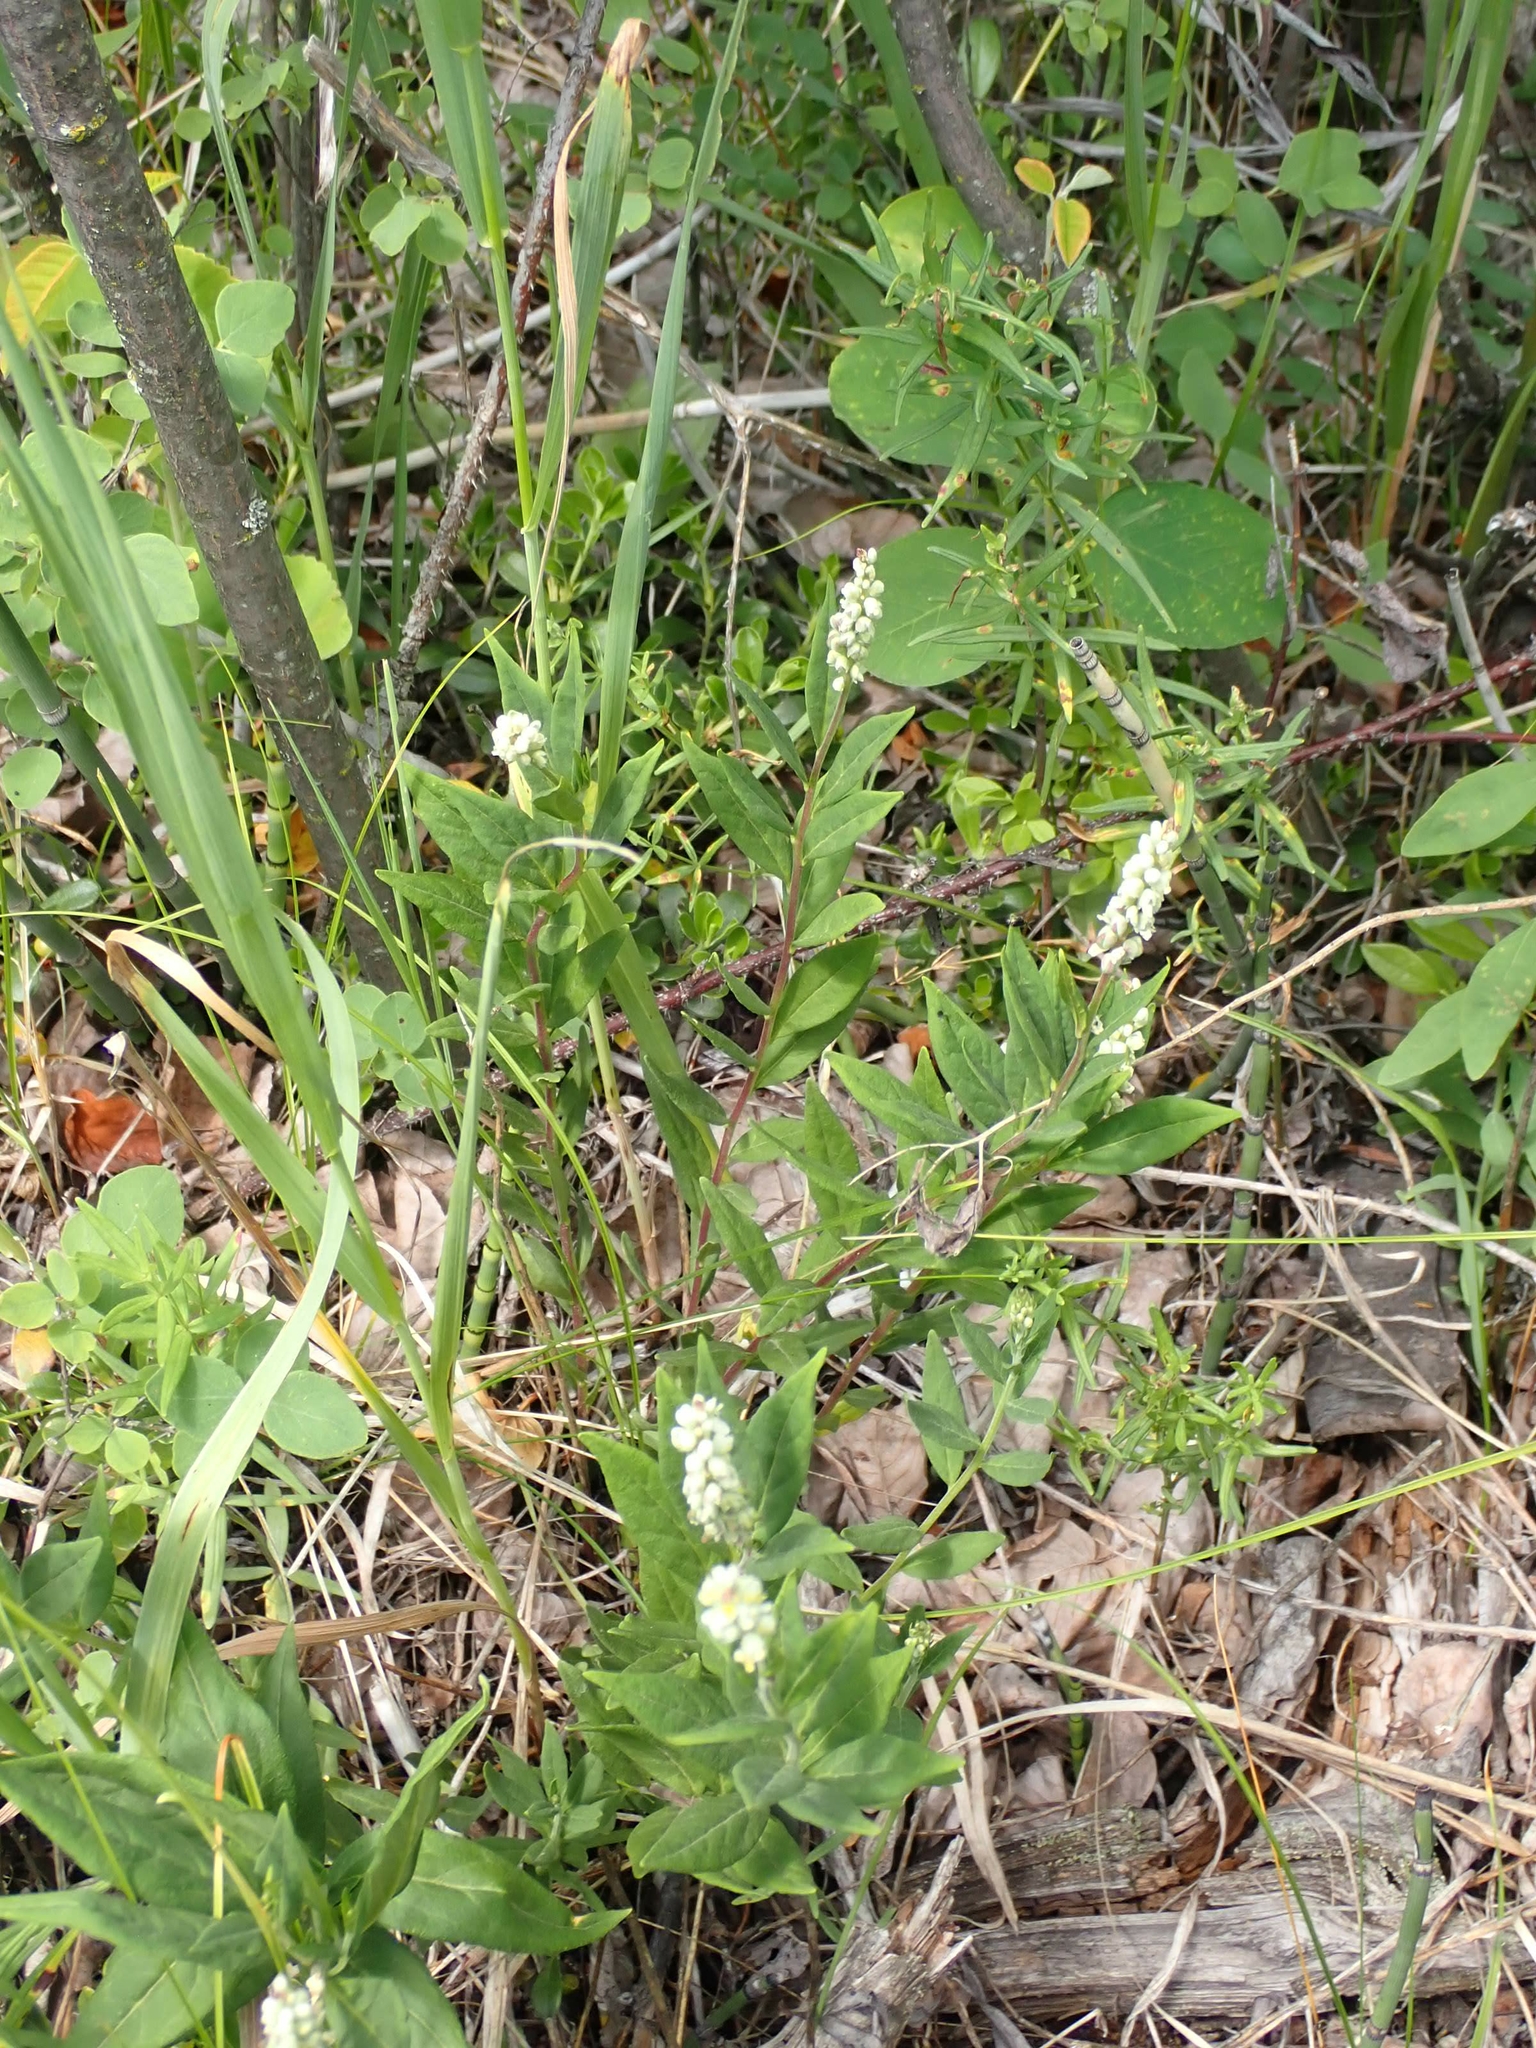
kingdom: Plantae
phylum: Tracheophyta
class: Magnoliopsida
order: Fabales
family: Polygalaceae
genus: Polygala
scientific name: Polygala senega
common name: Seneca snakeroot
